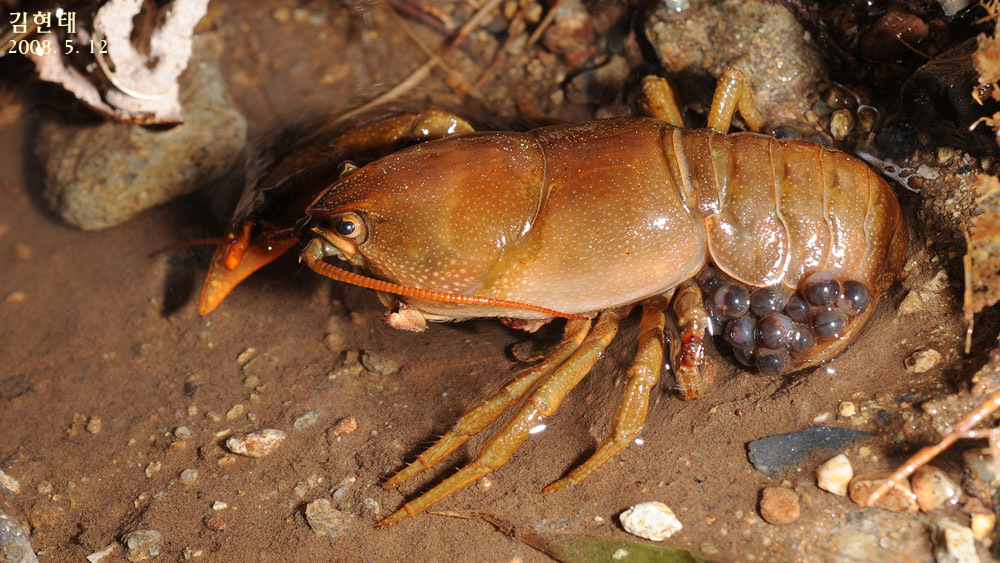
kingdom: Animalia
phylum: Arthropoda
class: Malacostraca
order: Decapoda
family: Cambaroididae
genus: Cambaroides
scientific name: Cambaroides similis
